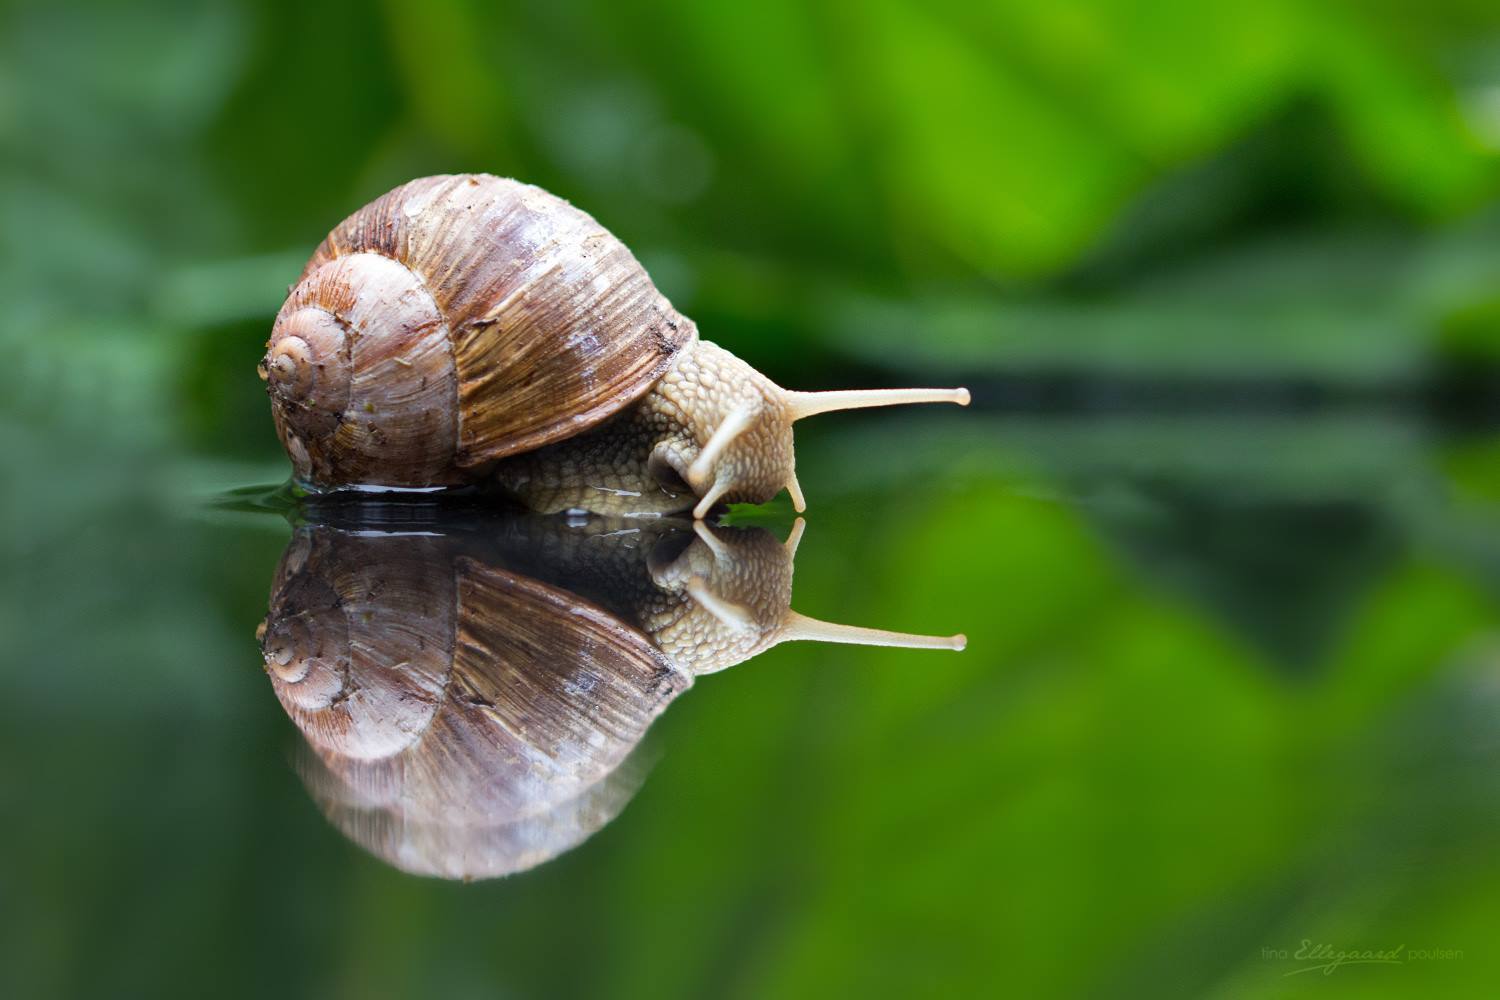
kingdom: Animalia
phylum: Mollusca
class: Gastropoda
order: Stylommatophora
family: Helicidae
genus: Helix
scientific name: Helix pomatia
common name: Roman snail
